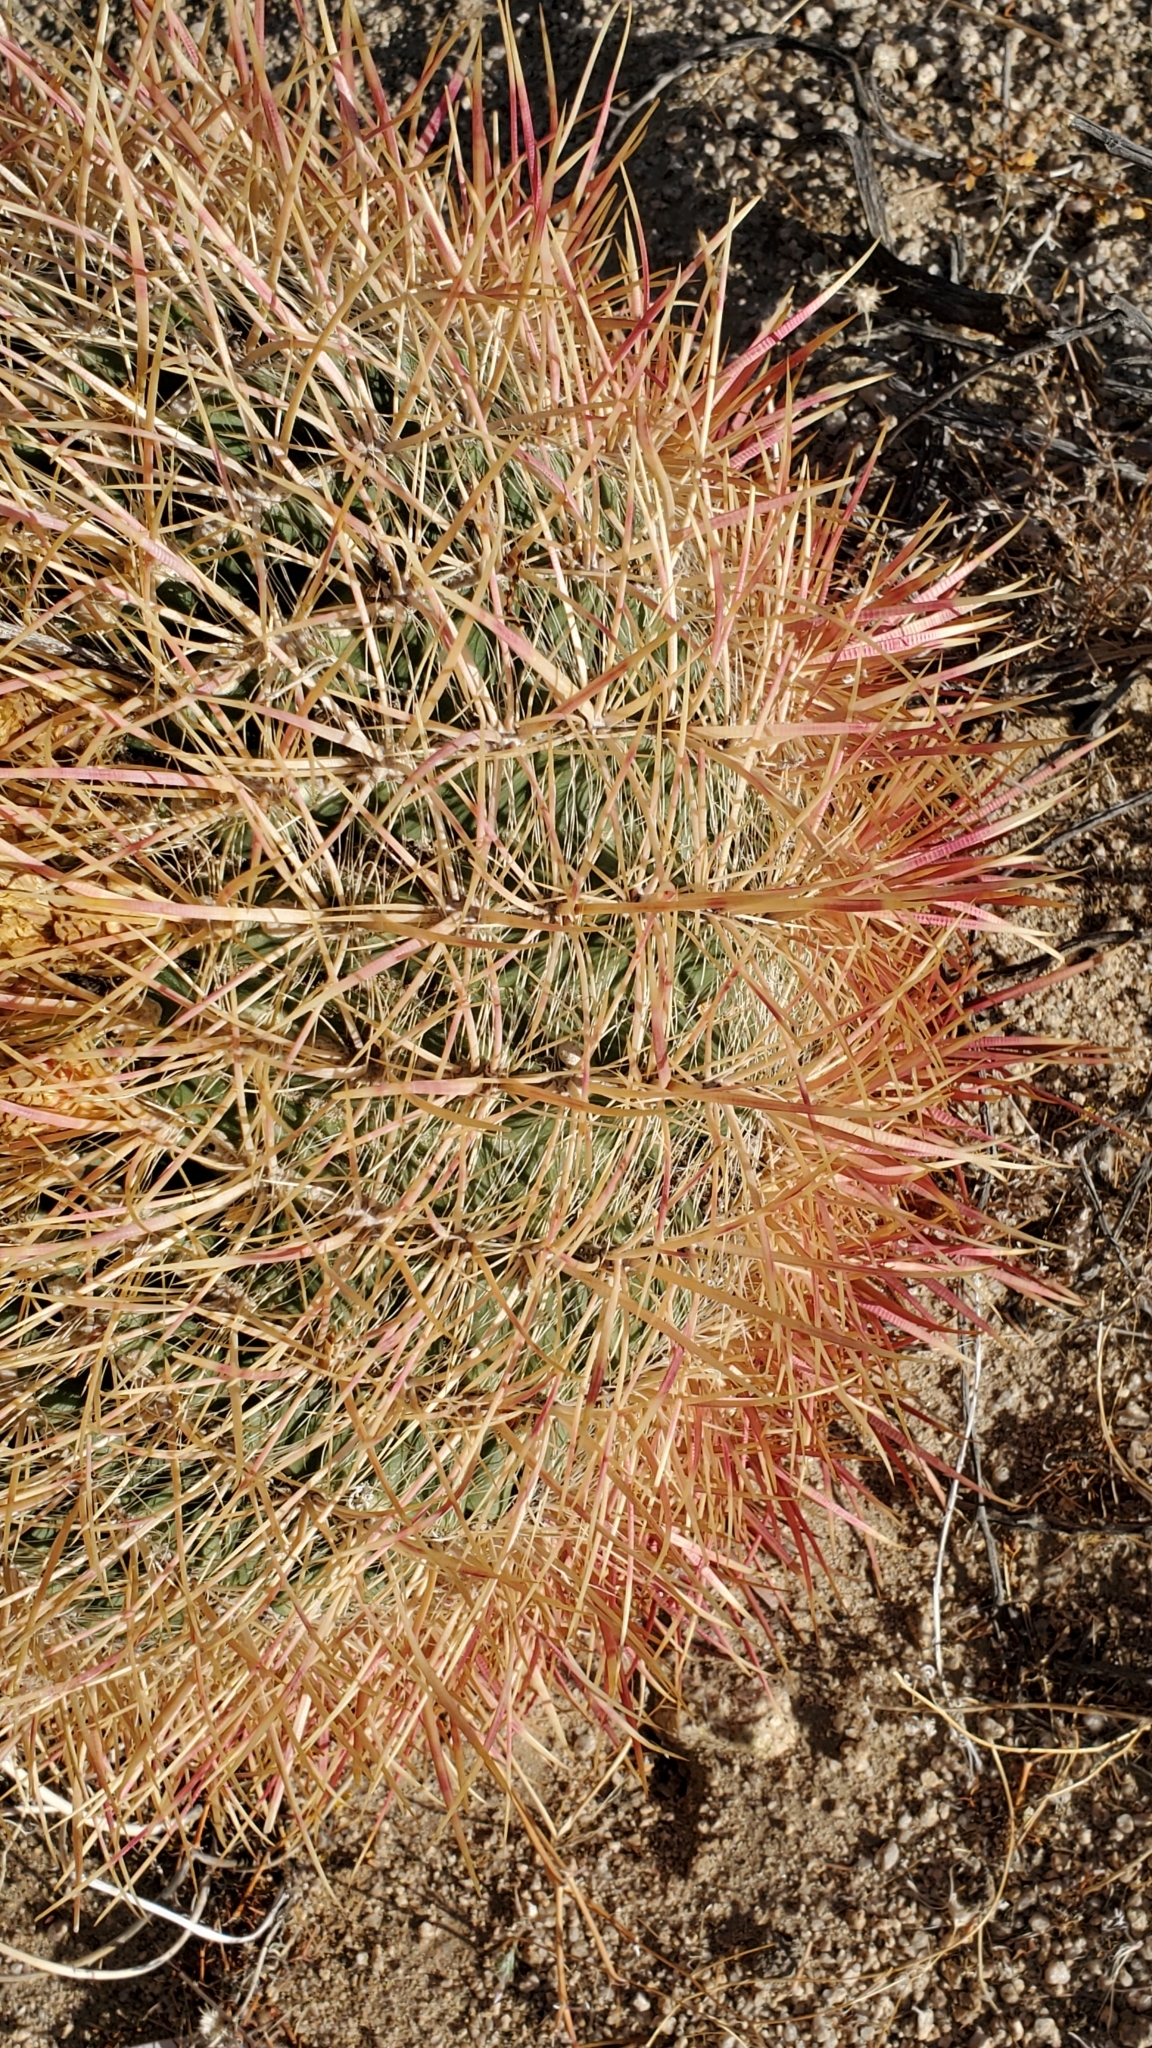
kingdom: Plantae
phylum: Tracheophyta
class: Magnoliopsida
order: Caryophyllales
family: Cactaceae
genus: Ferocactus
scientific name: Ferocactus cylindraceus
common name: California barrel cactus
